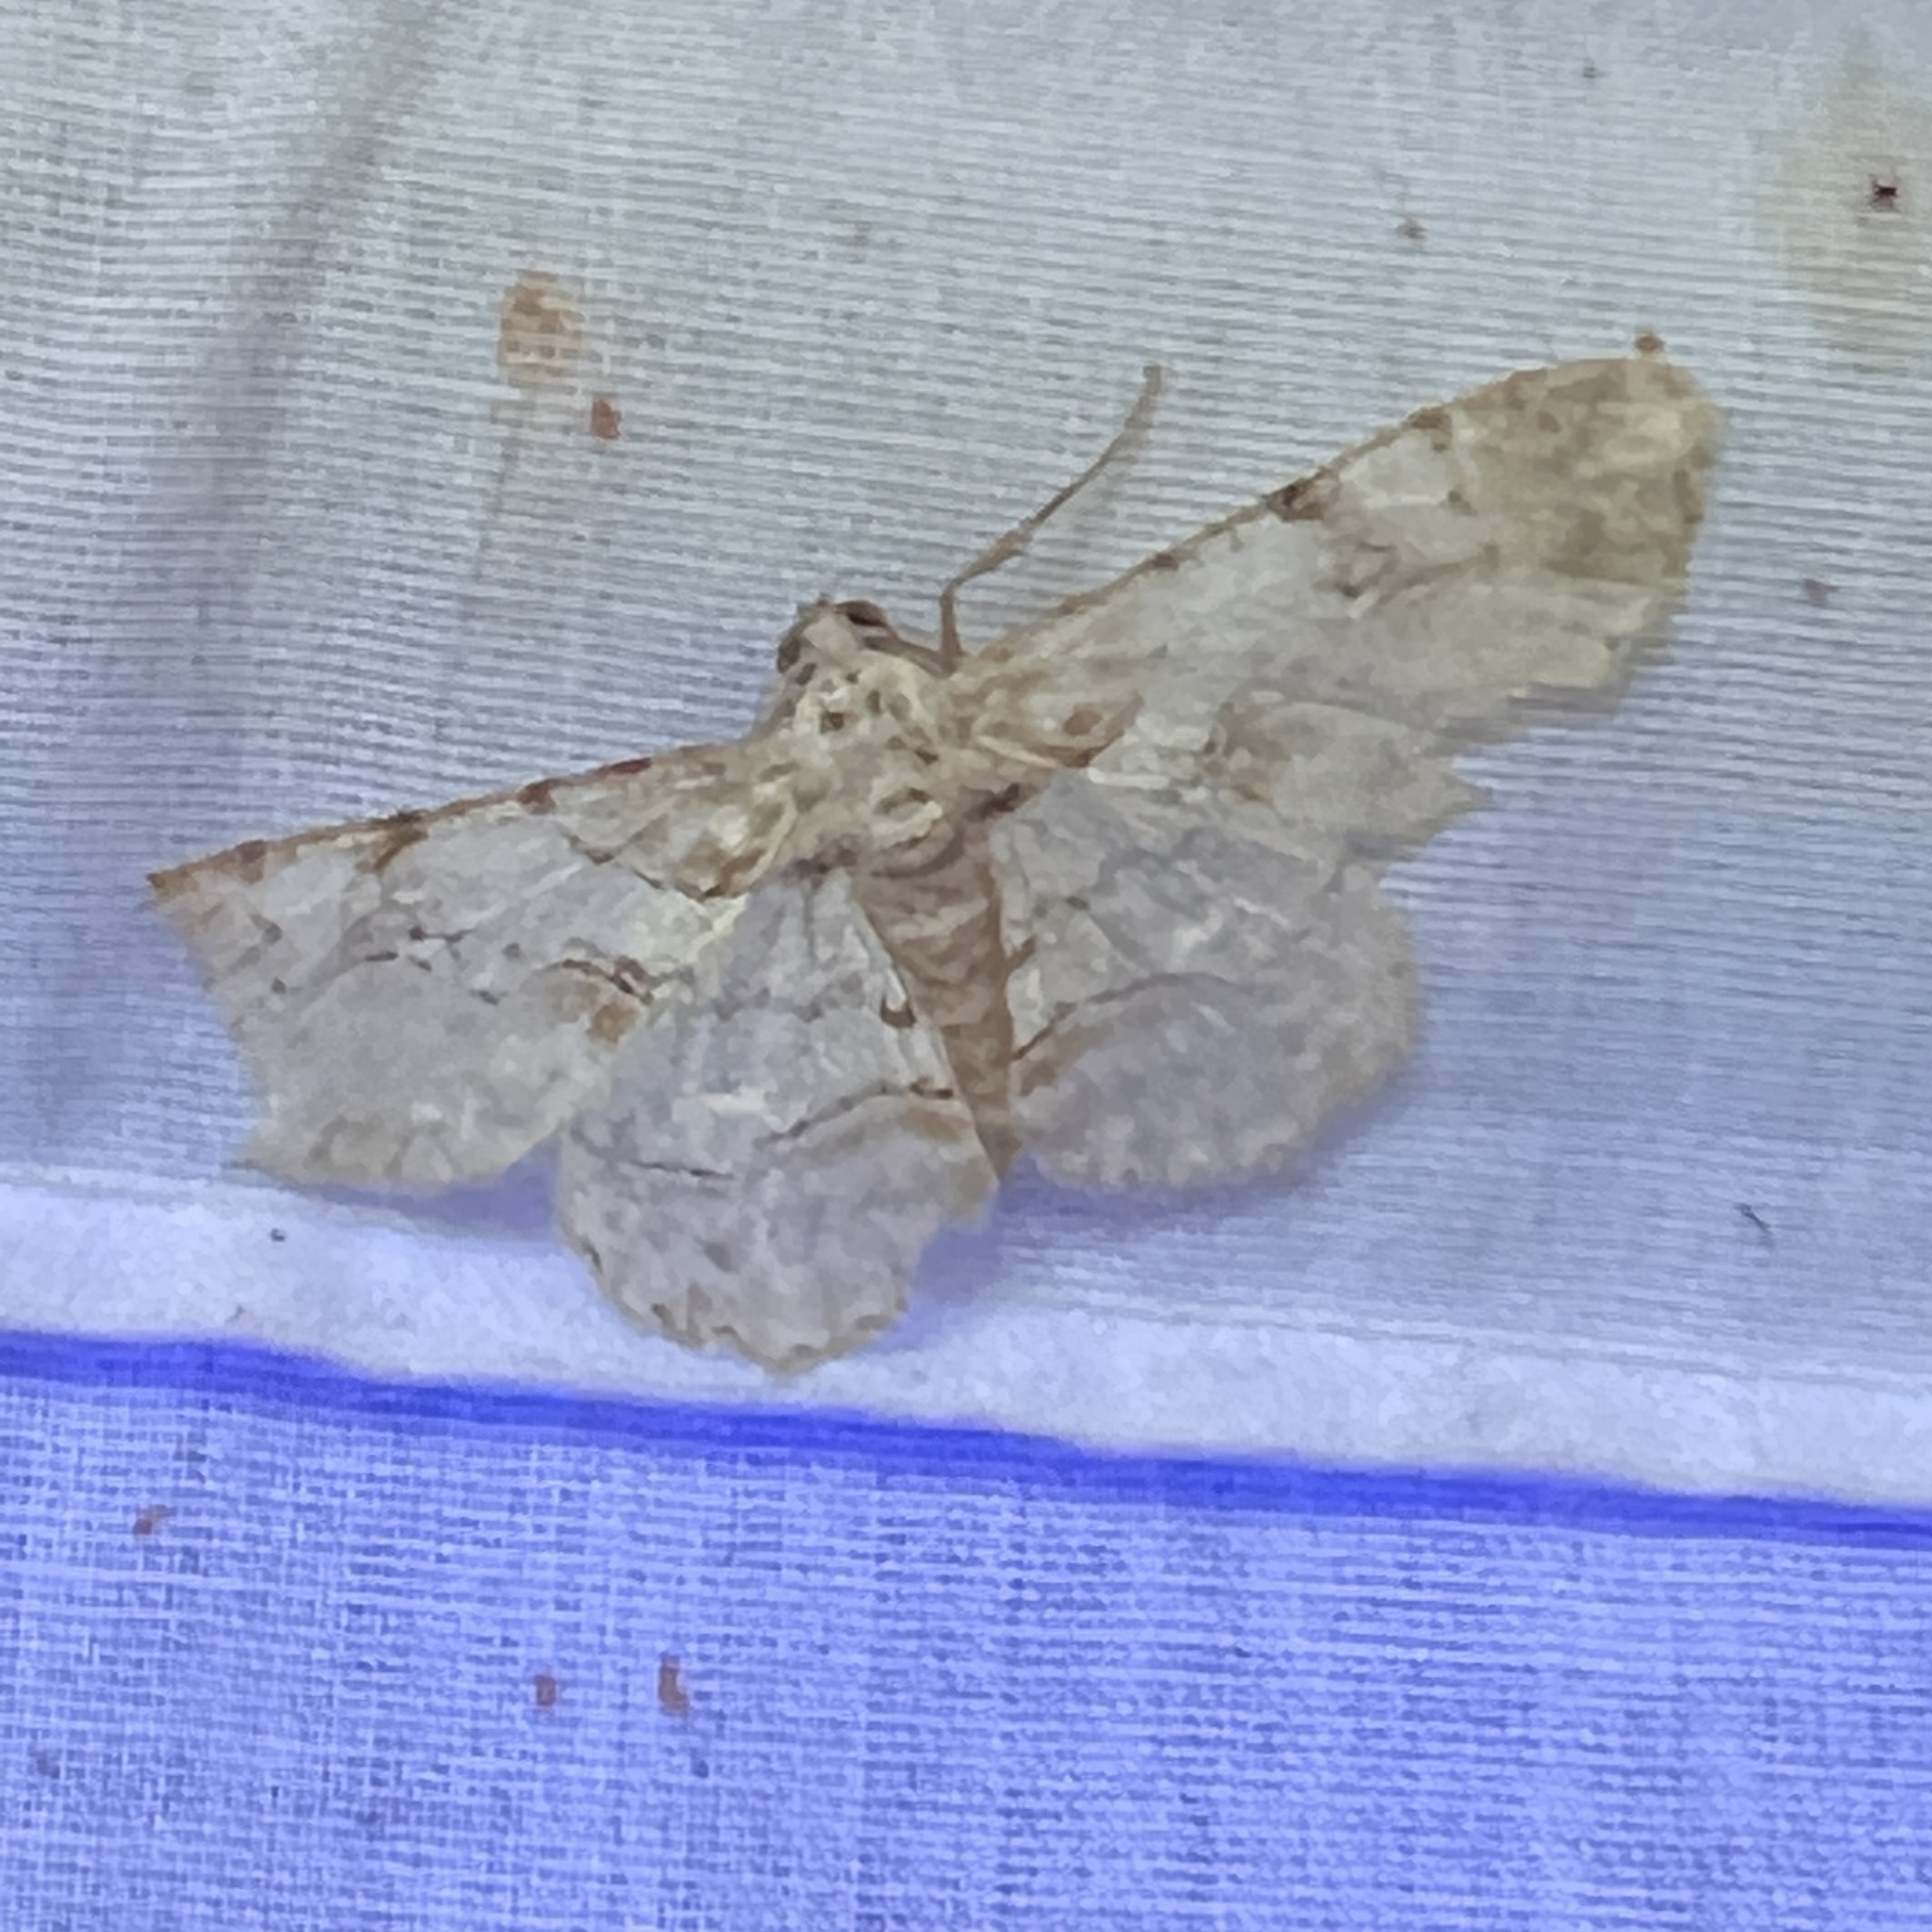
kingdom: Animalia
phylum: Arthropoda
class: Insecta
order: Lepidoptera
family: Geometridae
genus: Iridopsis
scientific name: Iridopsis defectaria
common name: Brown-shaded gray
